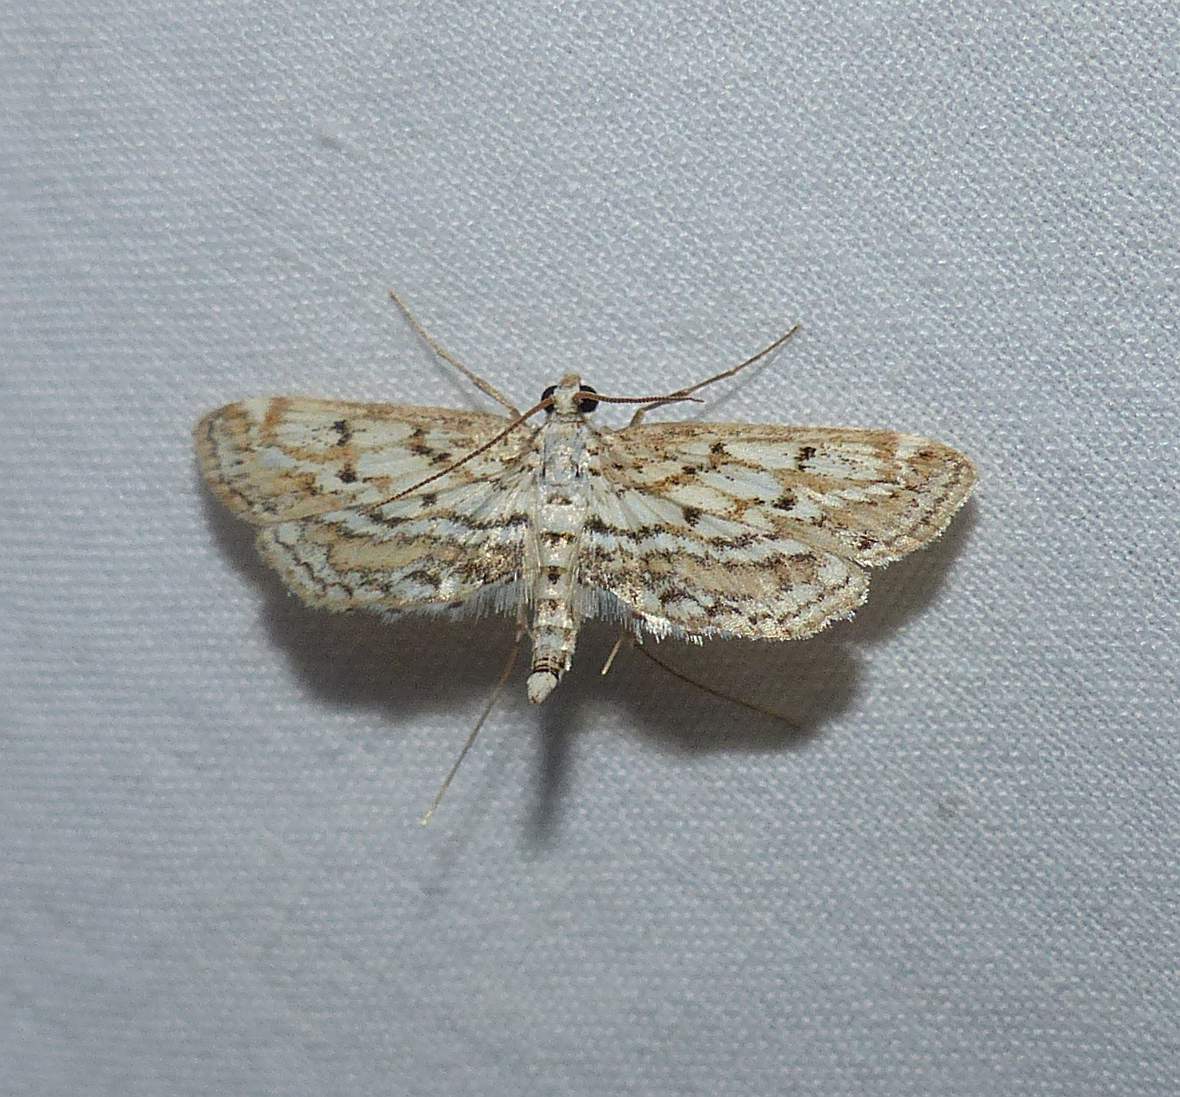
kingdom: Animalia
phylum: Arthropoda
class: Insecta
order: Lepidoptera
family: Crambidae
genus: Parapoynx
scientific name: Parapoynx allionealis
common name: Bladderwort casemaker
